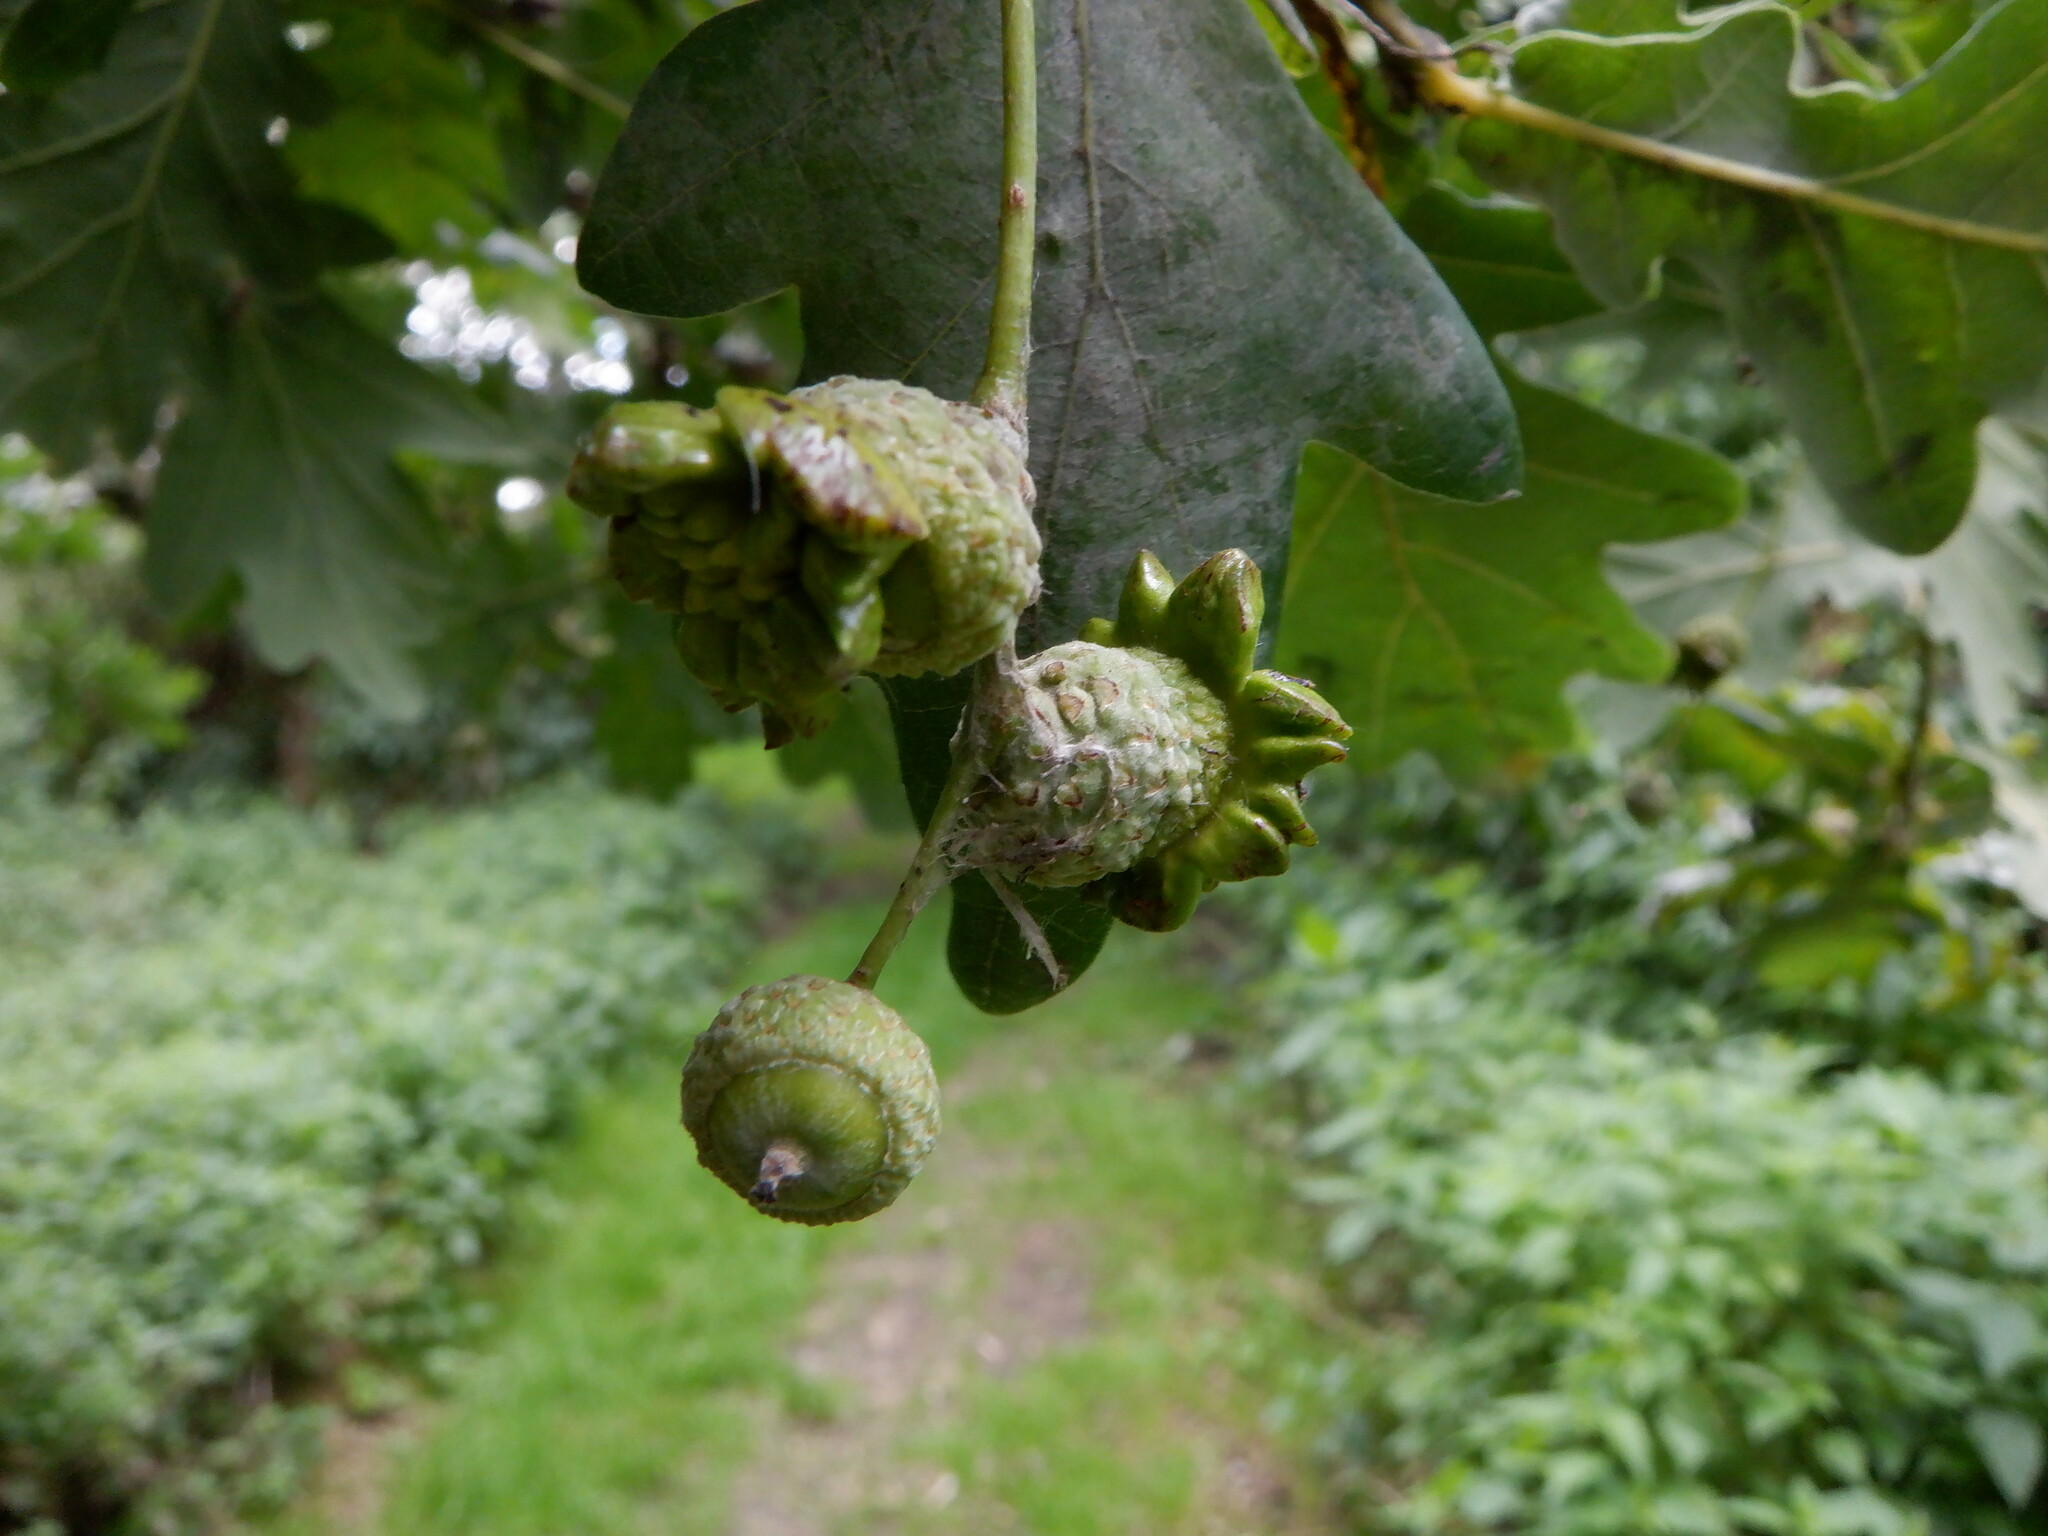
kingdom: Animalia
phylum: Arthropoda
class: Insecta
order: Hymenoptera
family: Cynipidae
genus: Andricus
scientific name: Andricus quercuscalicis
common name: Knopper gall
